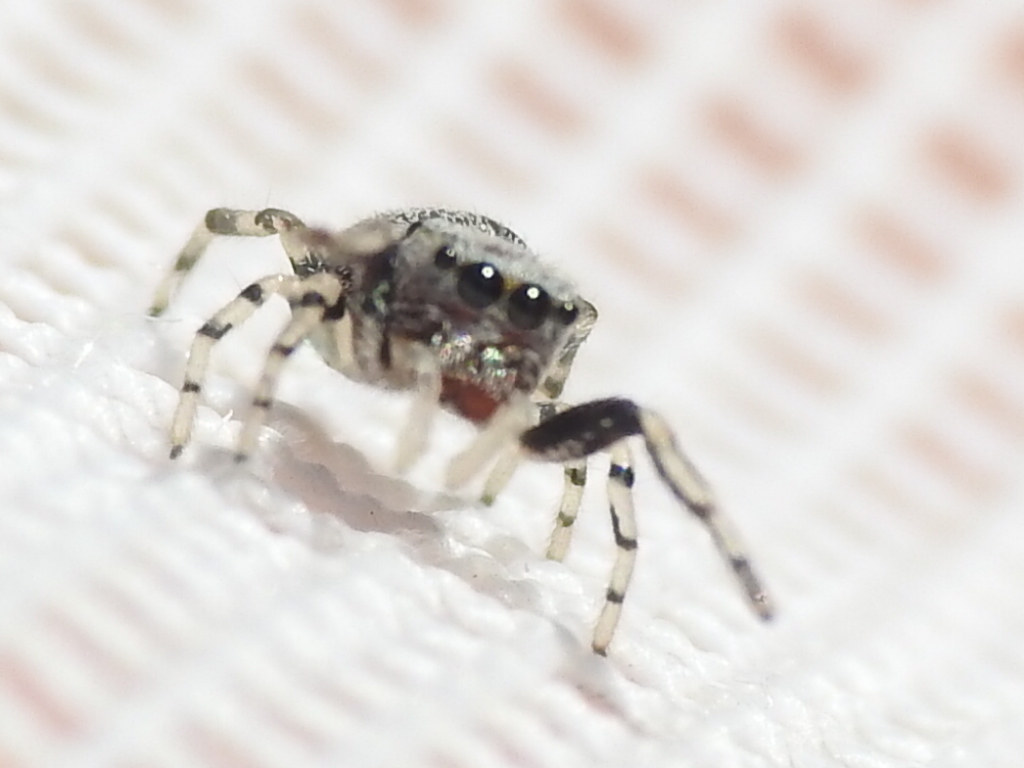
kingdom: Animalia
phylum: Arthropoda
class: Arachnida
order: Araneae
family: Salticidae
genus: Zygoballus
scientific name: Zygoballus rufipes
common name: Jumping spiders
